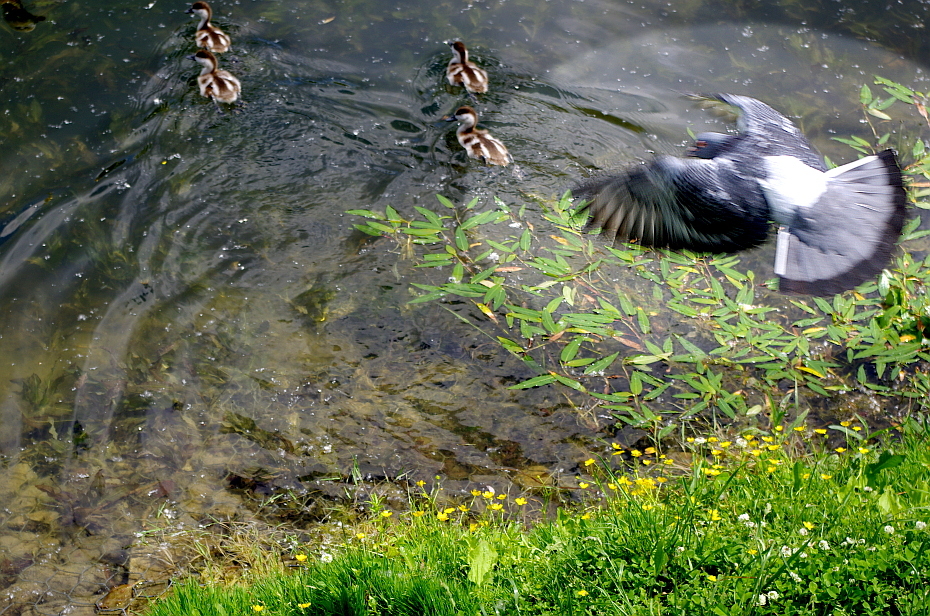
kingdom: Animalia
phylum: Chordata
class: Aves
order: Columbiformes
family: Columbidae
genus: Columba
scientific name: Columba livia
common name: Rock pigeon
